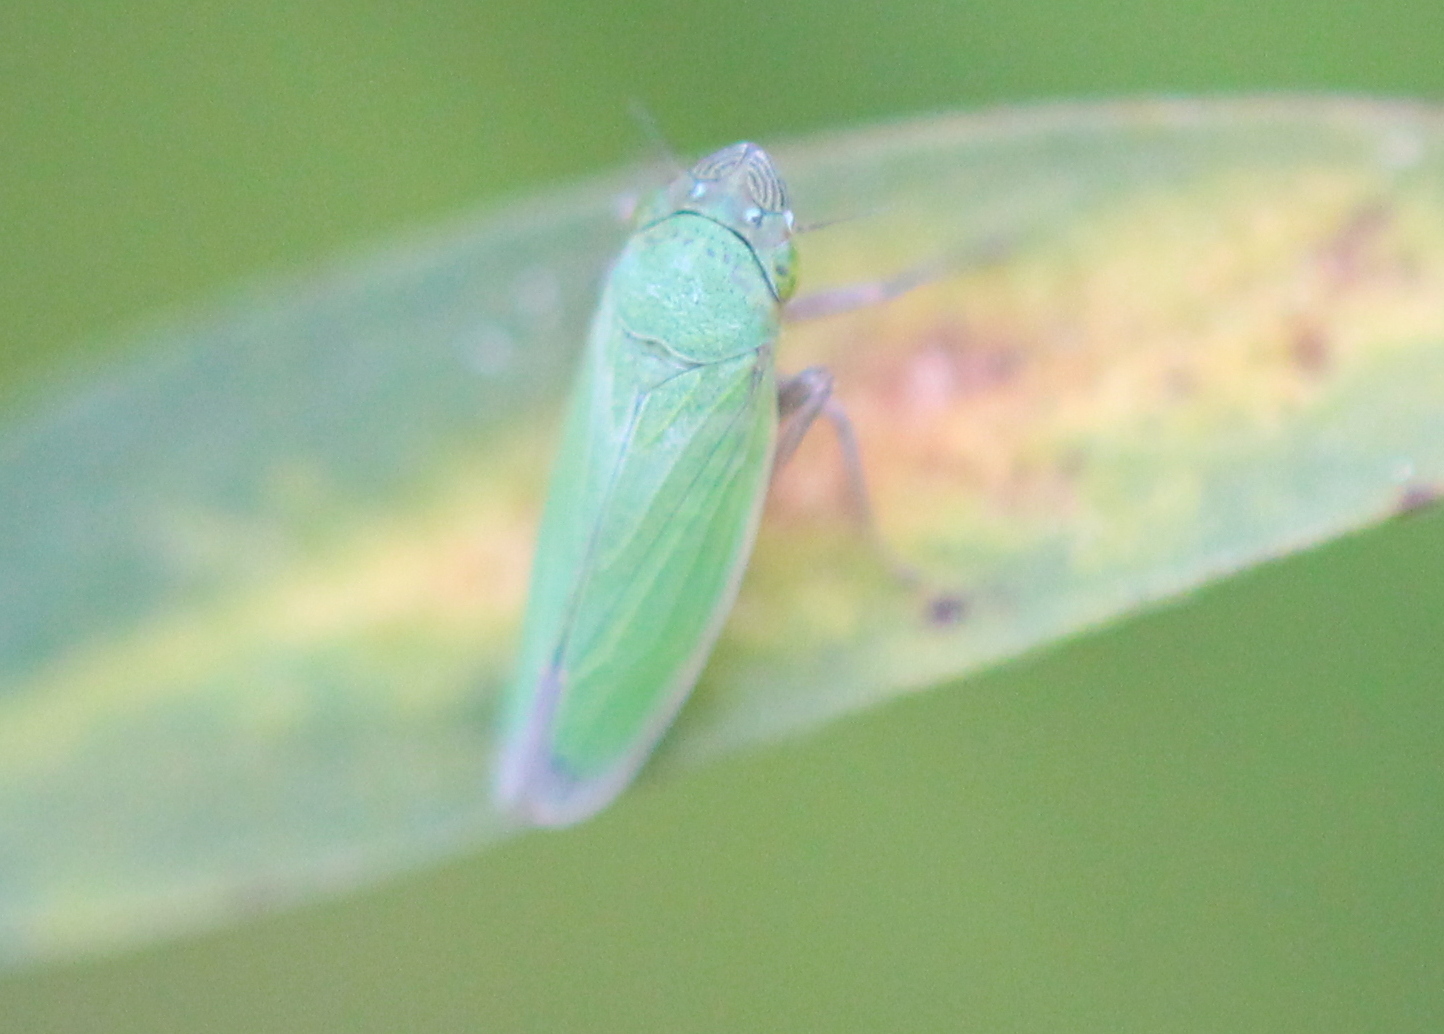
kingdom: Animalia
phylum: Arthropoda
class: Insecta
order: Hemiptera
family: Cicadellidae
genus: Helochara
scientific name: Helochara communis
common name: Bog leafhopper
